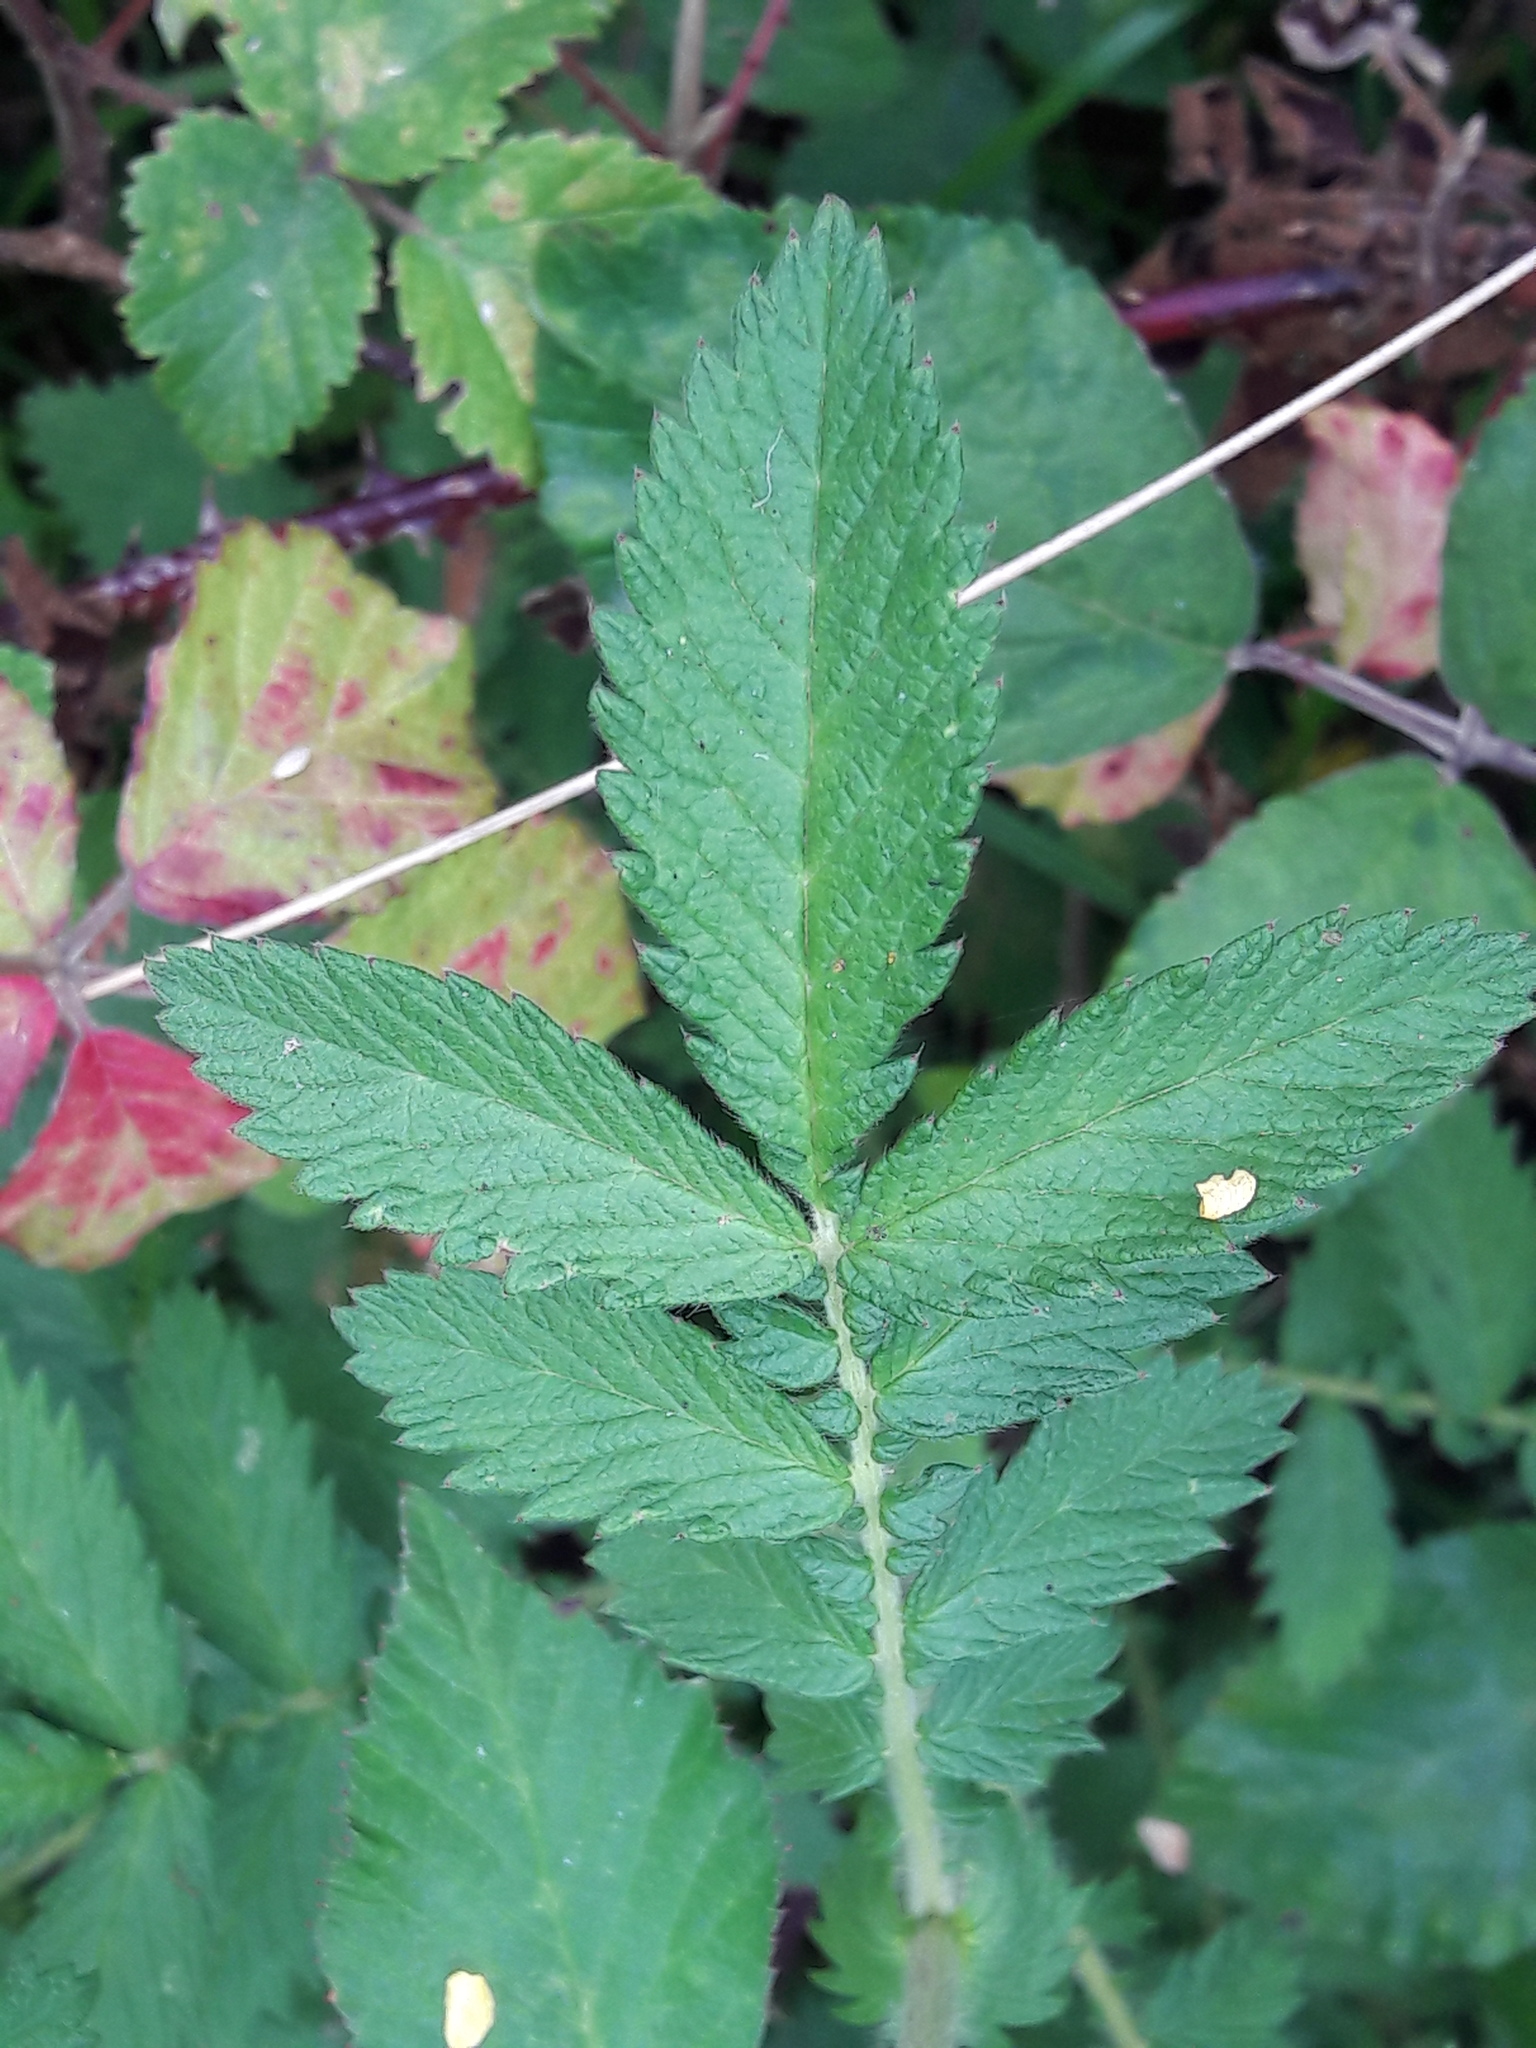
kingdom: Plantae
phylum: Tracheophyta
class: Magnoliopsida
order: Rosales
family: Rosaceae
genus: Agrimonia
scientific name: Agrimonia eupatoria
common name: Agrimony
